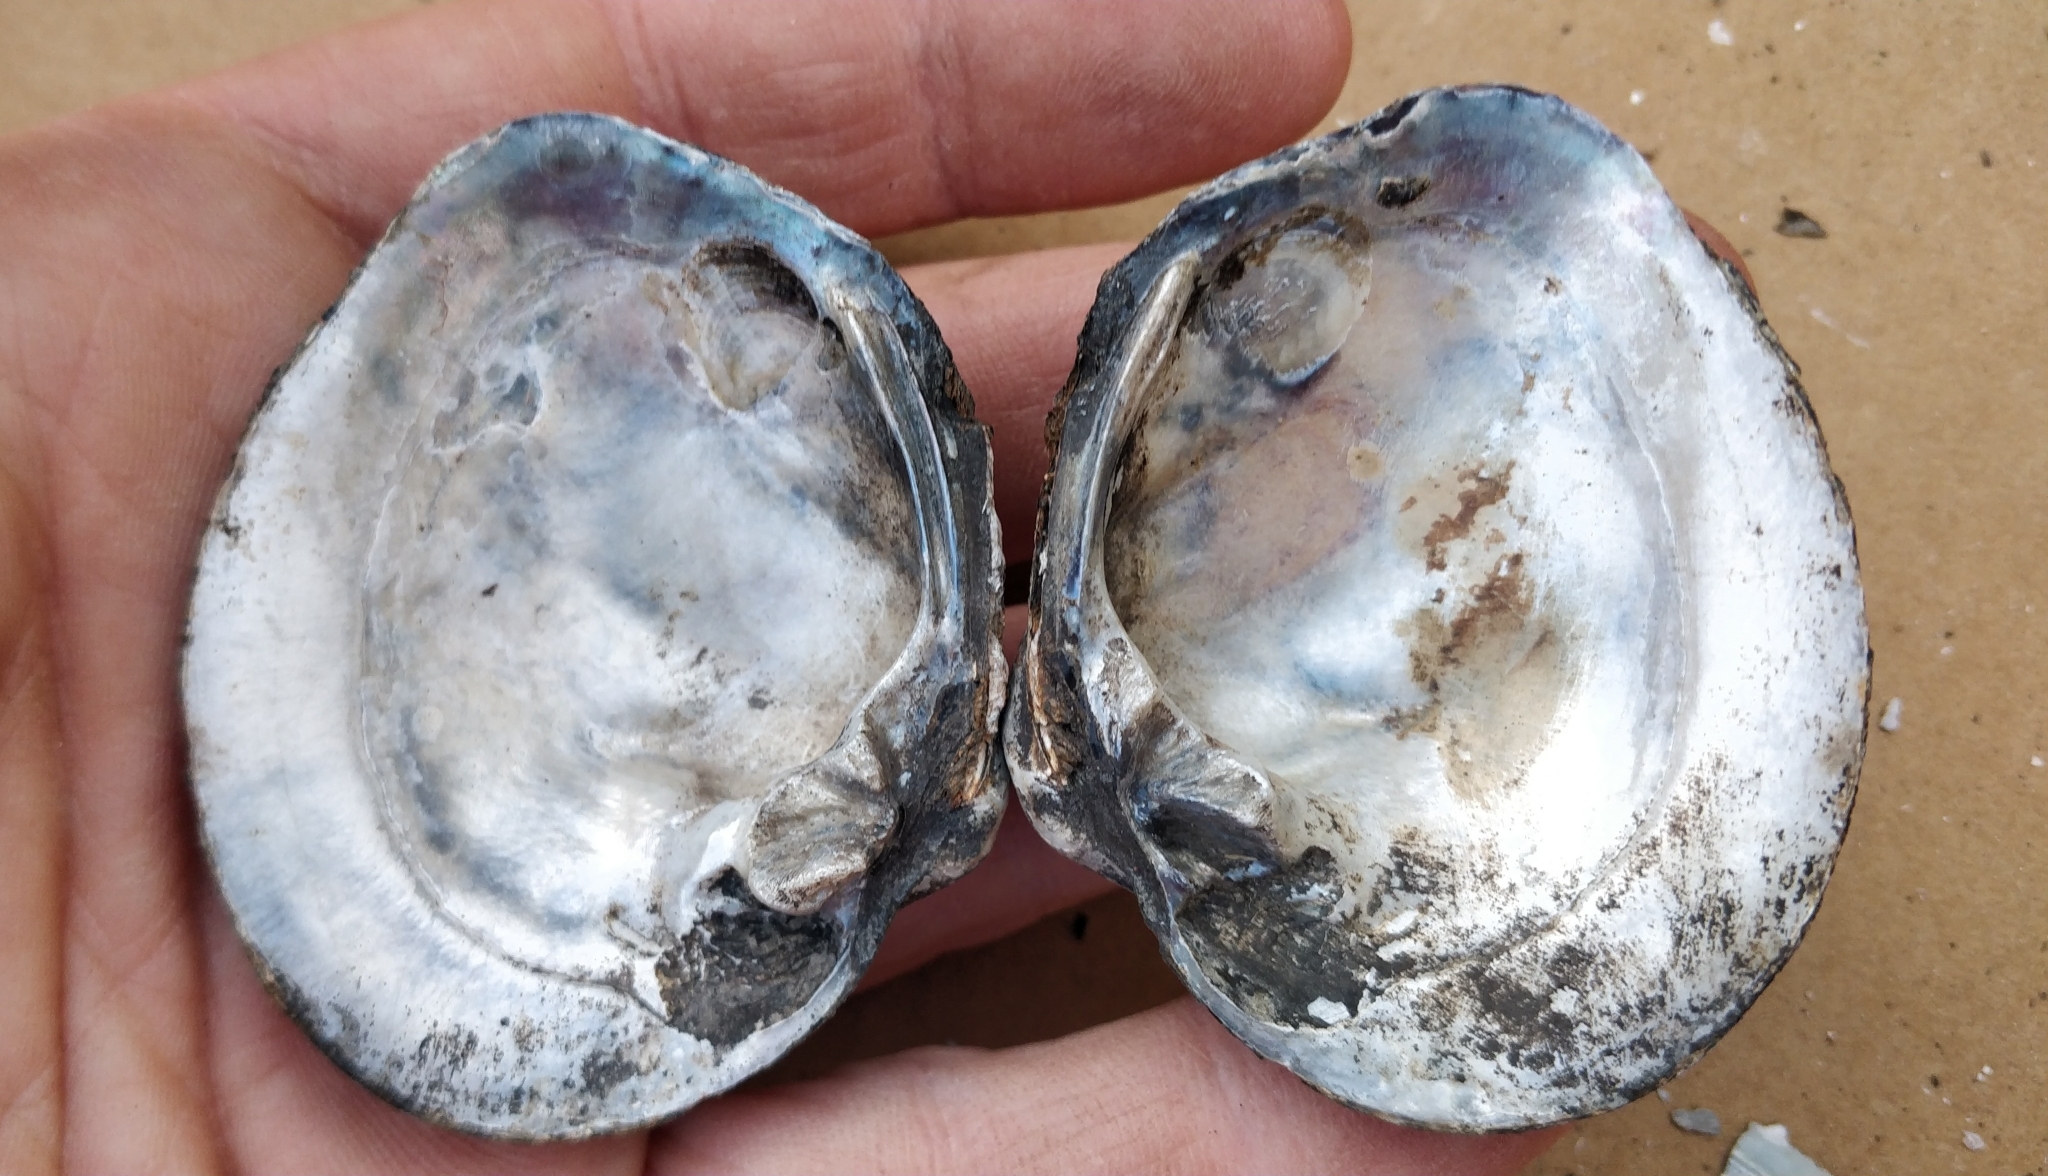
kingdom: Animalia
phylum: Mollusca
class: Bivalvia
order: Unionida
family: Unionidae
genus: Cyclonaias
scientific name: Cyclonaias pustulosa
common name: Pimpleback
